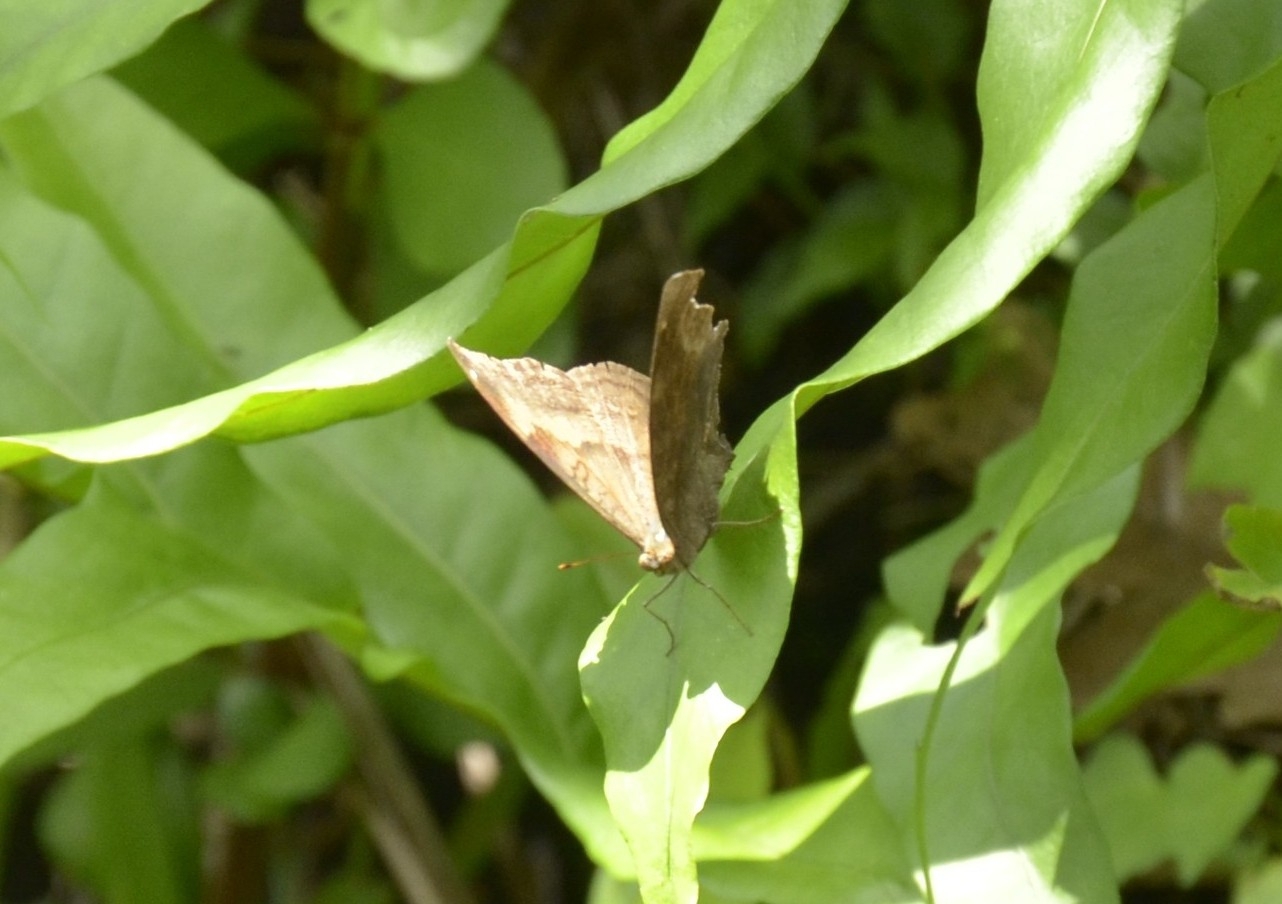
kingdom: Animalia
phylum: Arthropoda
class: Insecta
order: Lepidoptera
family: Nymphalidae
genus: Junonia
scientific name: Junonia iphita
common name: Chocolate pansy
